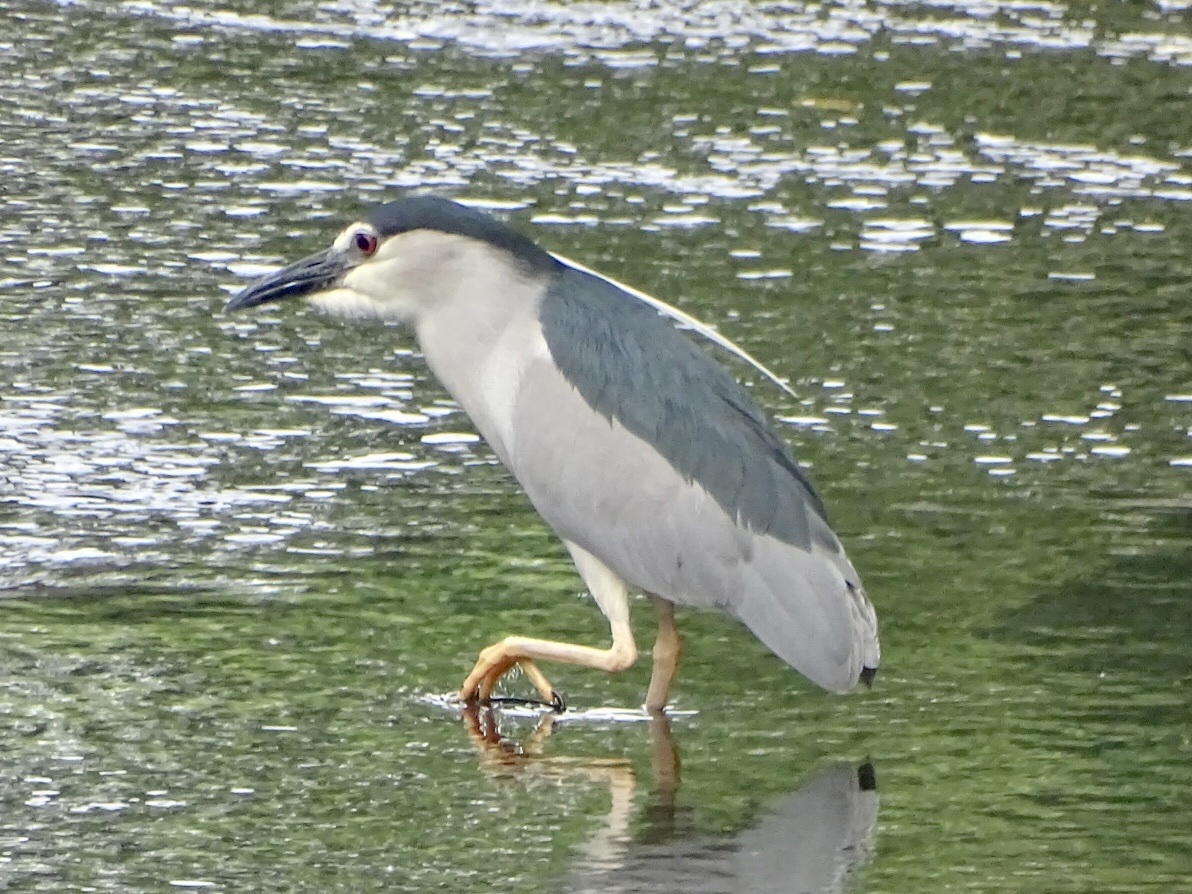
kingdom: Animalia
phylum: Chordata
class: Aves
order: Pelecaniformes
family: Ardeidae
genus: Nycticorax
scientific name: Nycticorax nycticorax
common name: Black-crowned night heron
